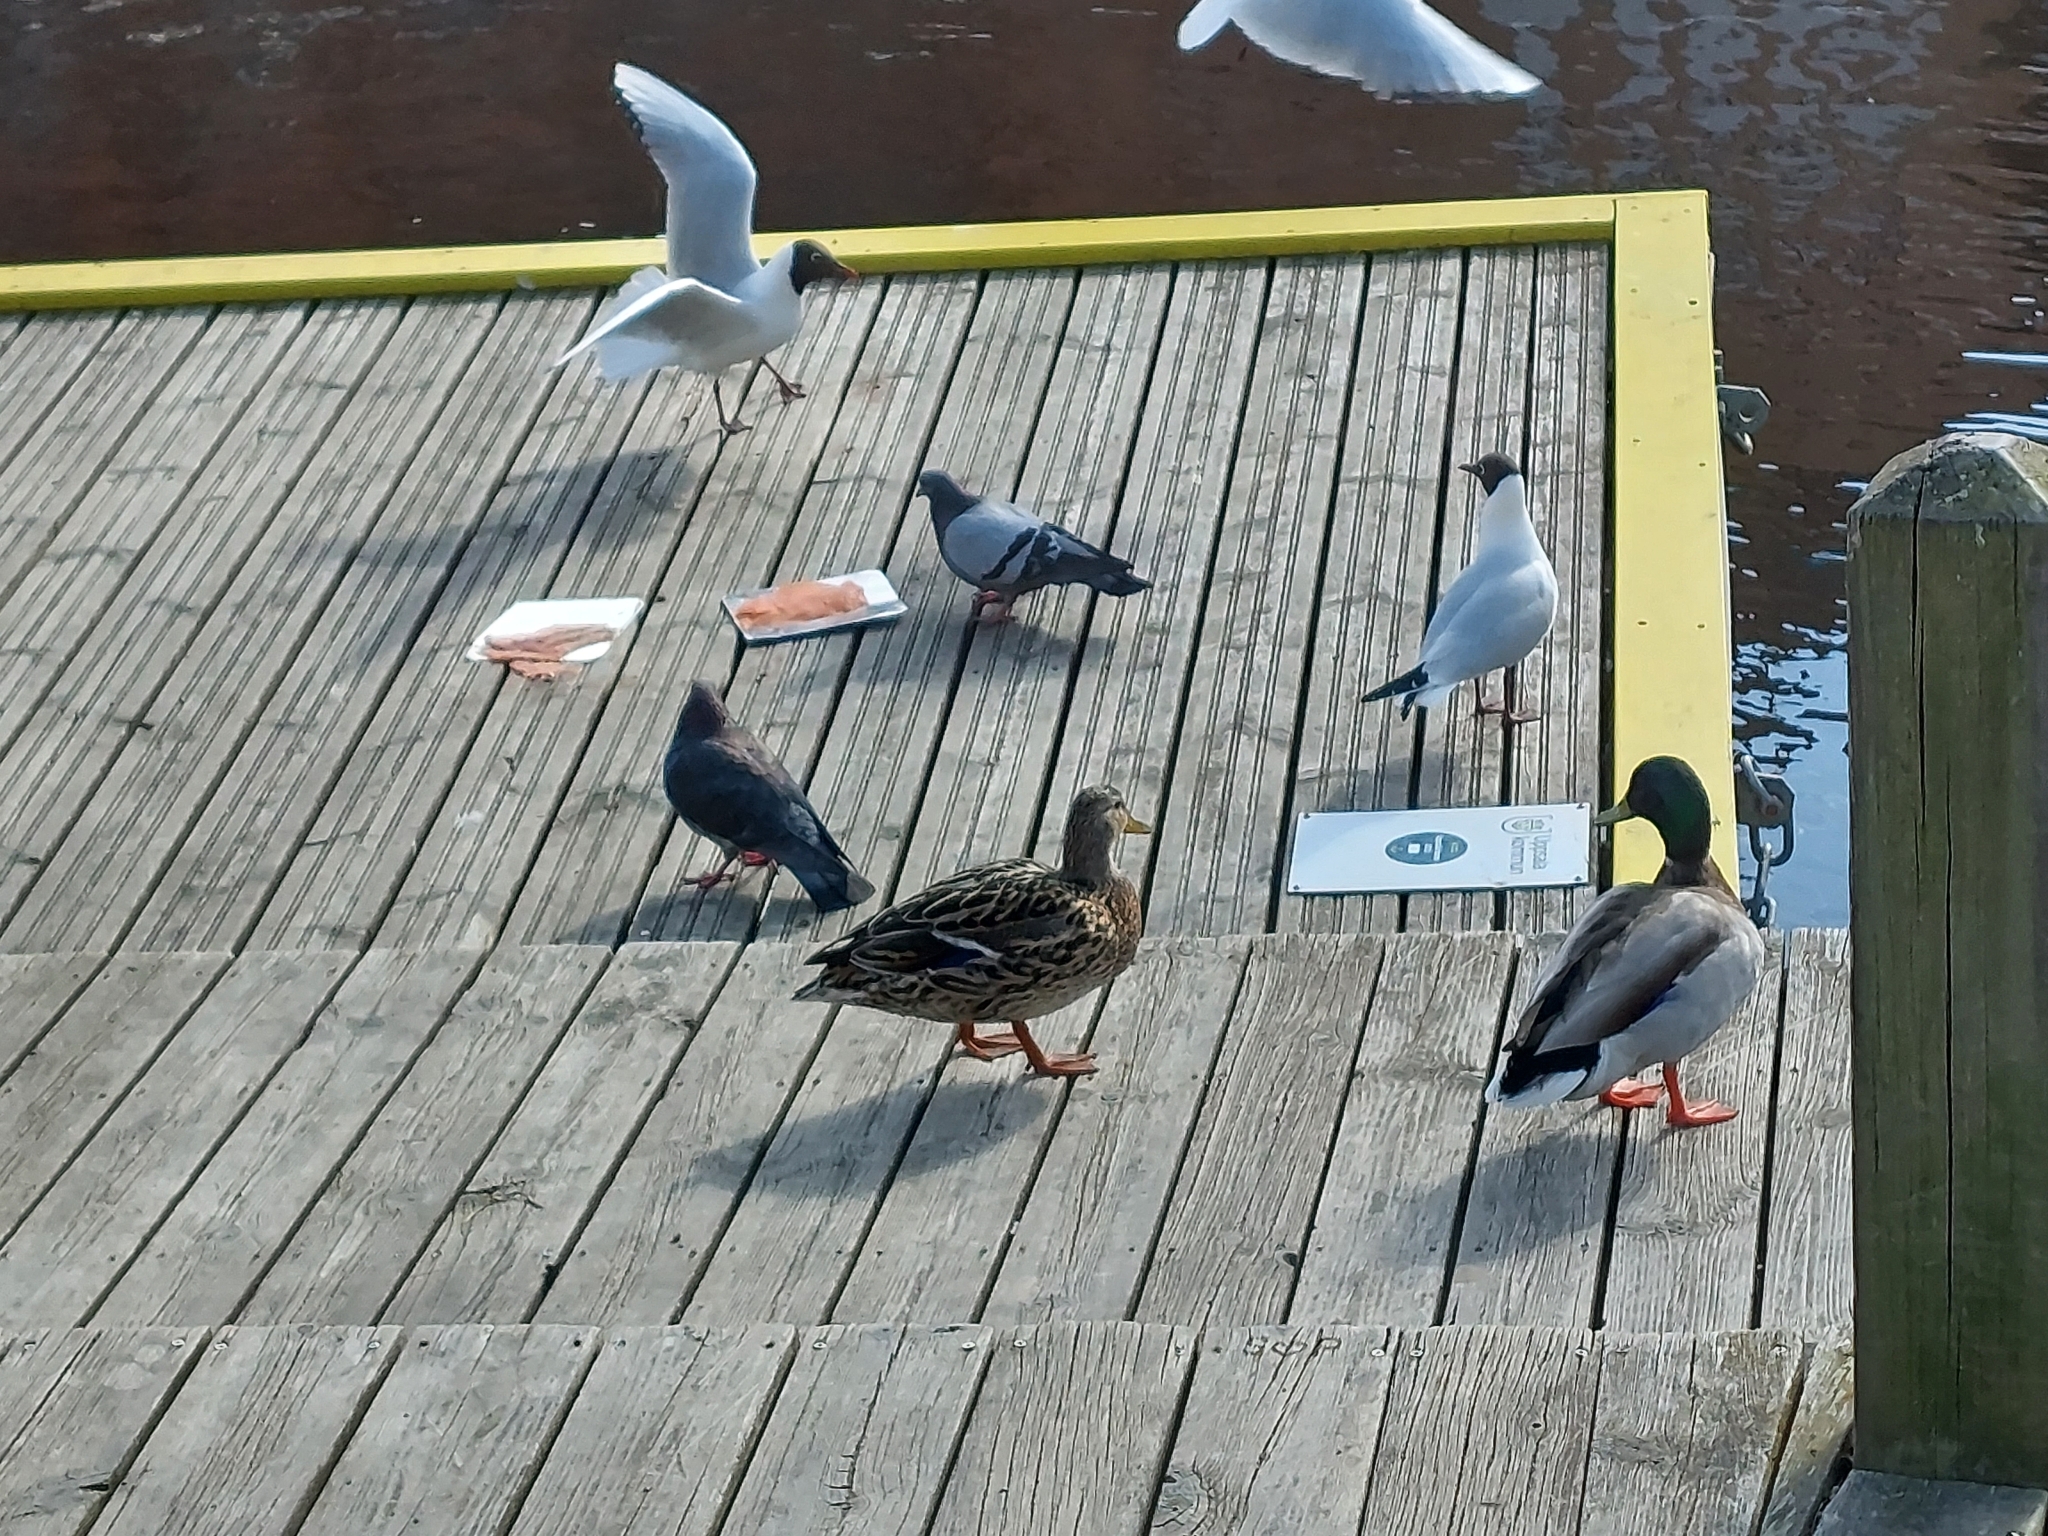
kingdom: Animalia
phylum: Chordata
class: Aves
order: Anseriformes
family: Anatidae
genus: Anas
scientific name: Anas platyrhynchos
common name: Mallard
